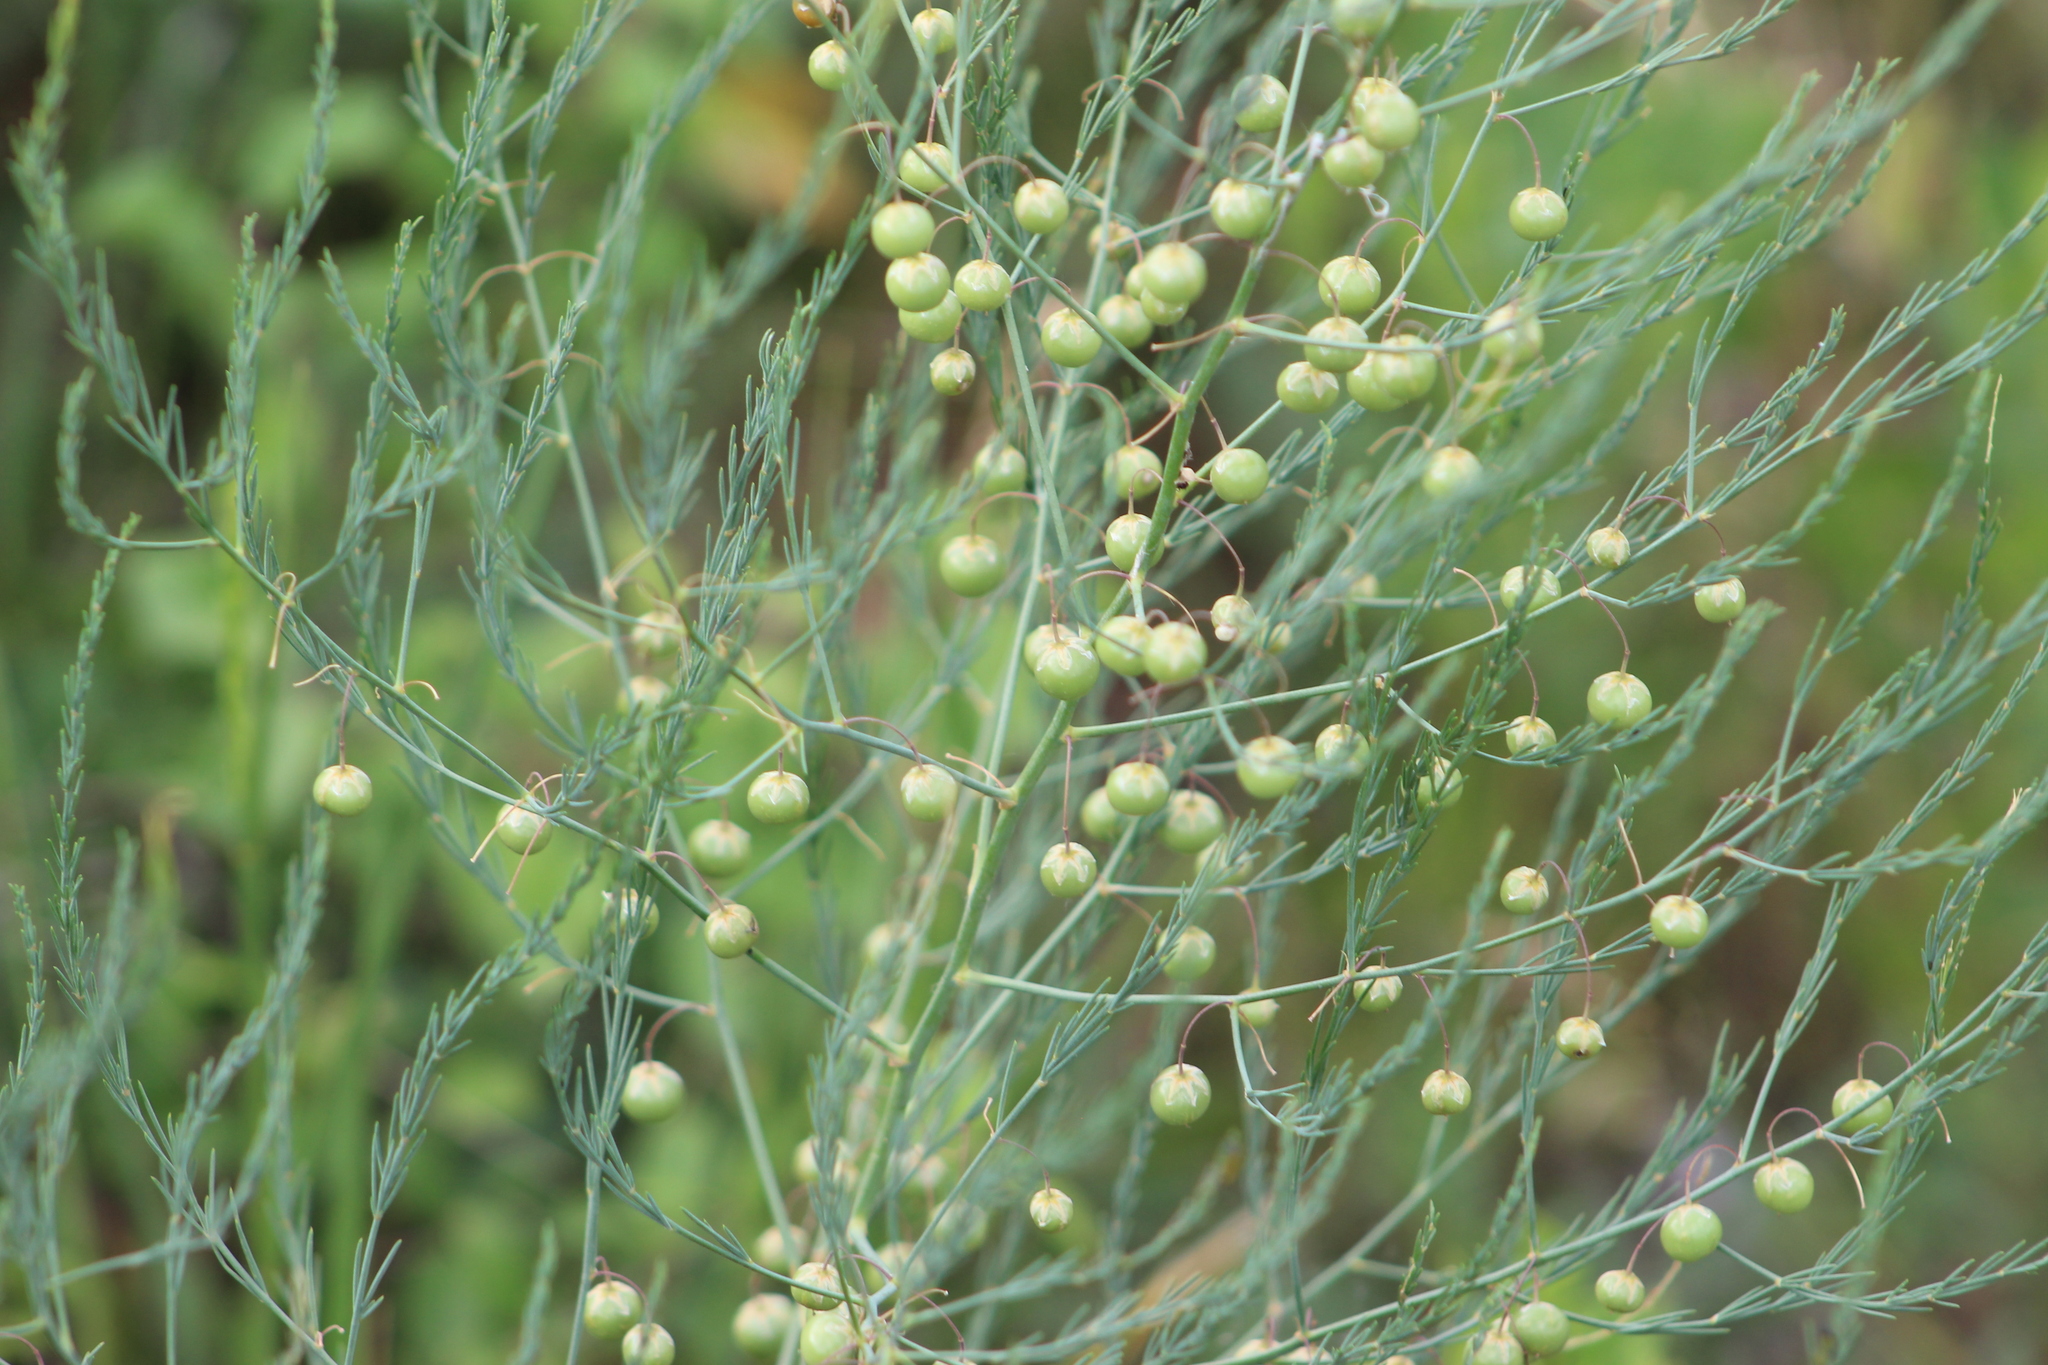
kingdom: Plantae
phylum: Tracheophyta
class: Liliopsida
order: Asparagales
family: Asparagaceae
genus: Asparagus
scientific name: Asparagus officinalis
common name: Garden asparagus
